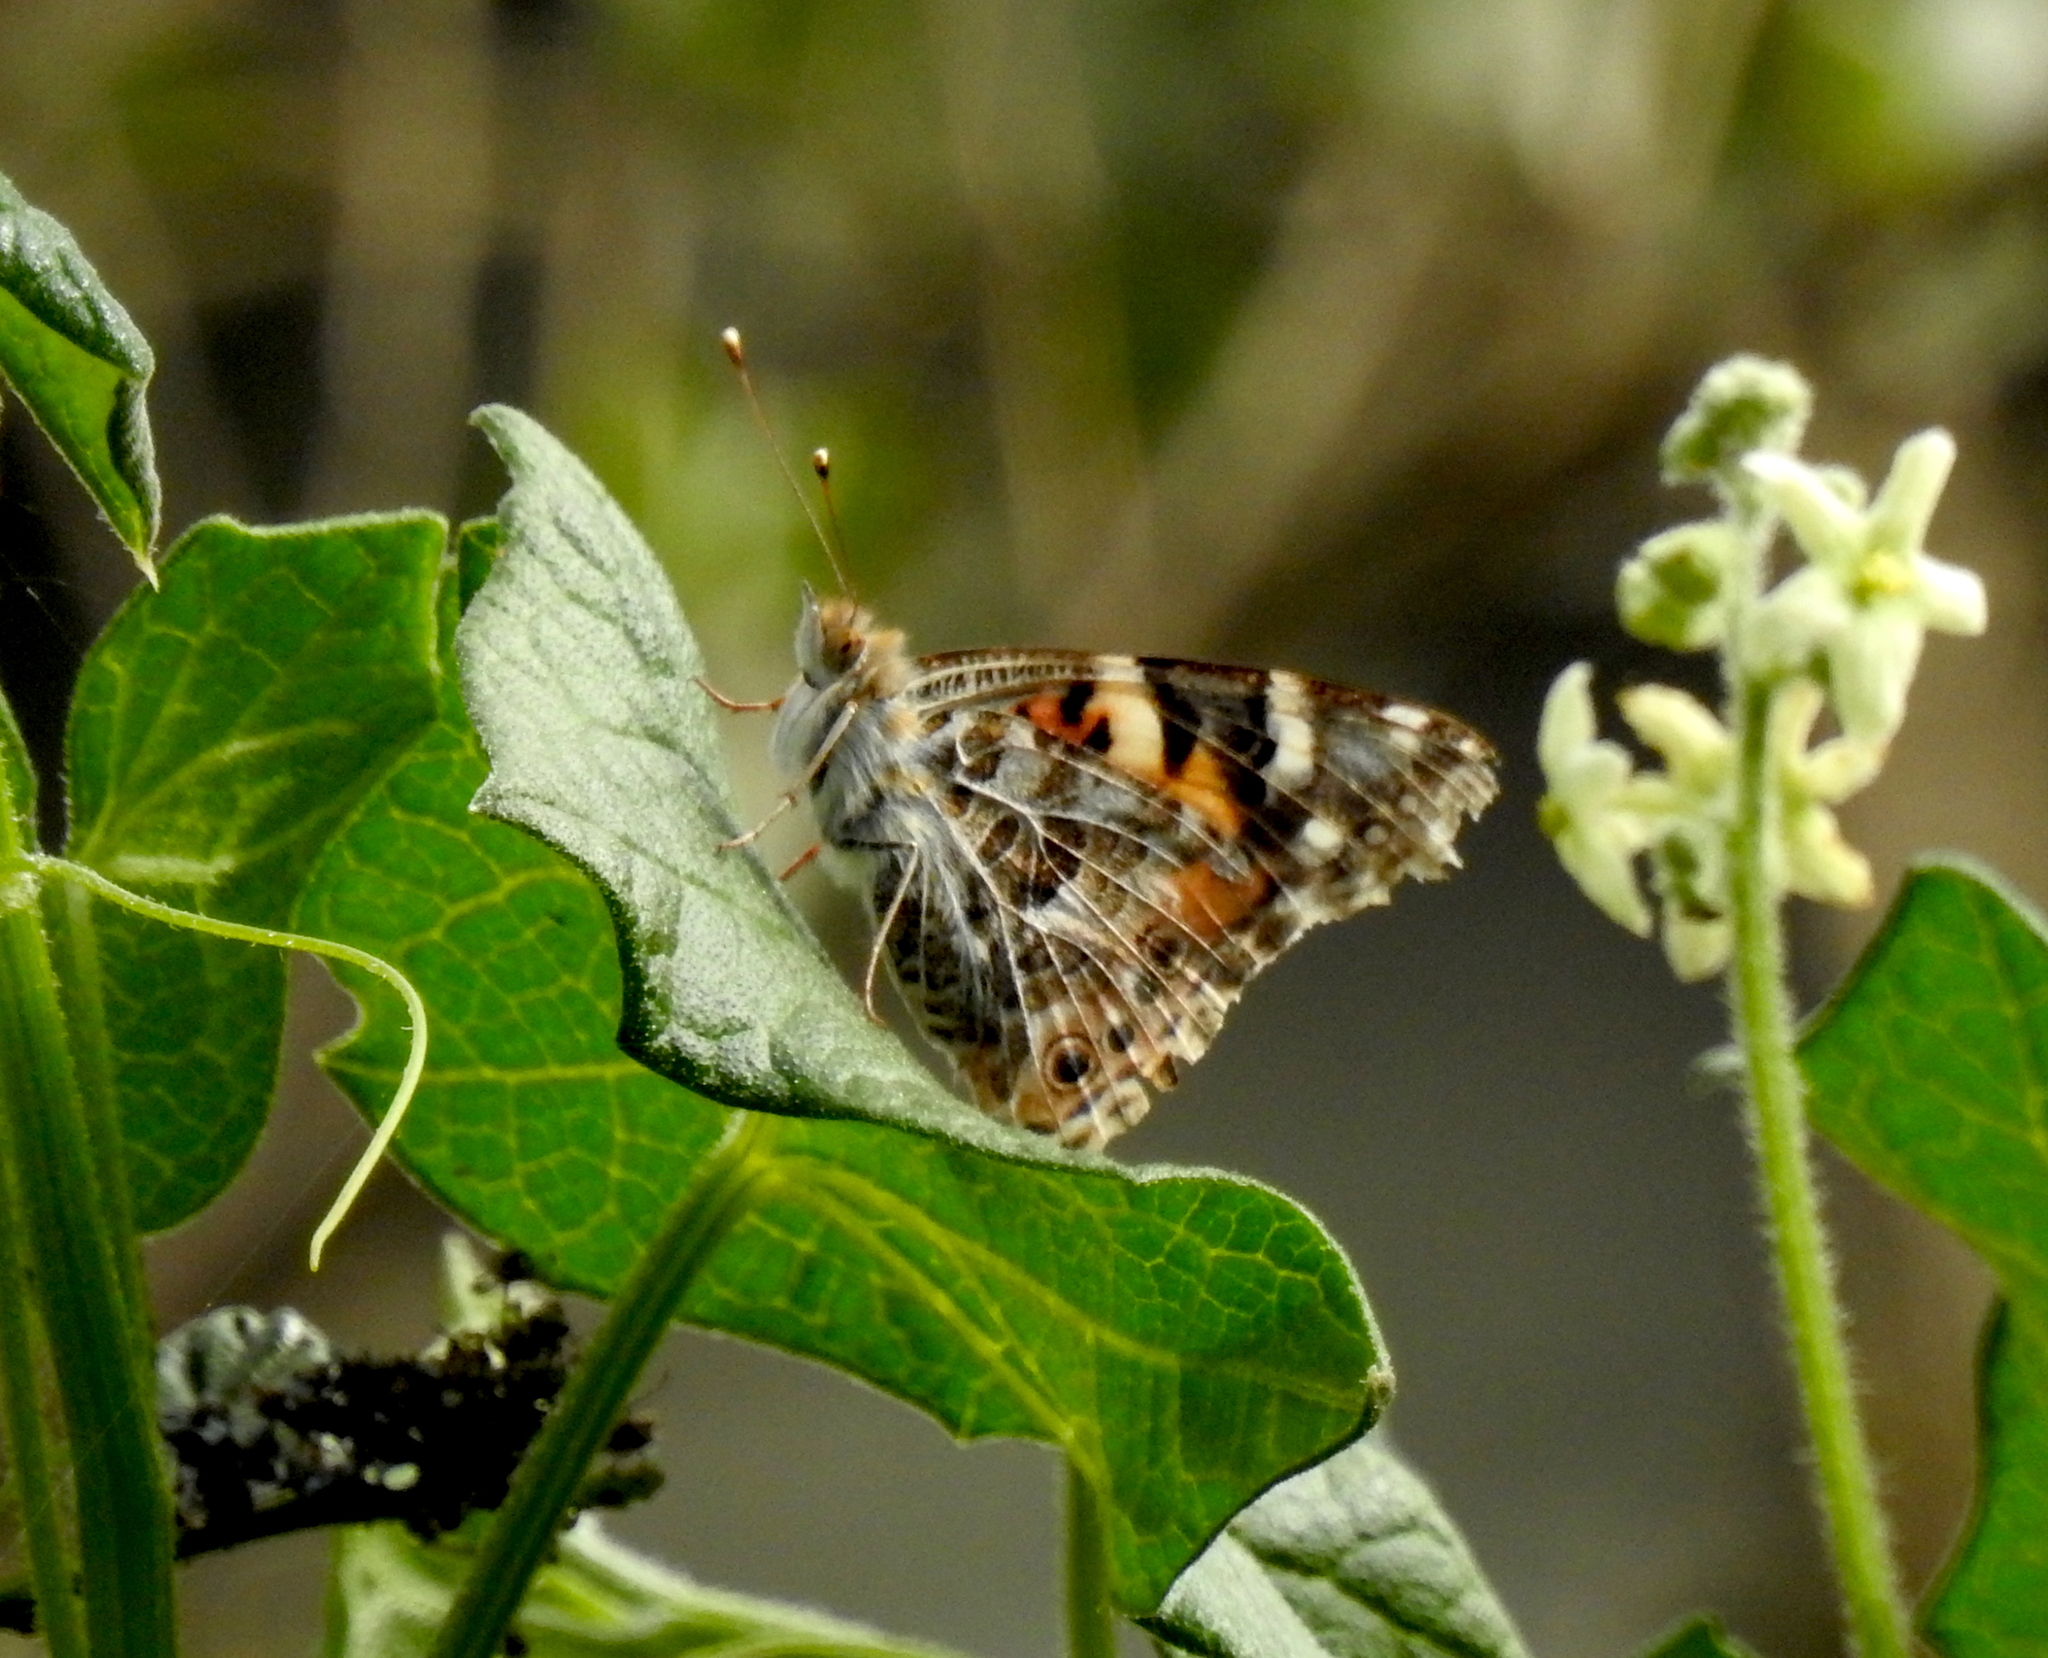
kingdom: Animalia
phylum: Arthropoda
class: Insecta
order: Lepidoptera
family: Nymphalidae
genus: Vanessa
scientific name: Vanessa cardui
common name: Painted lady
